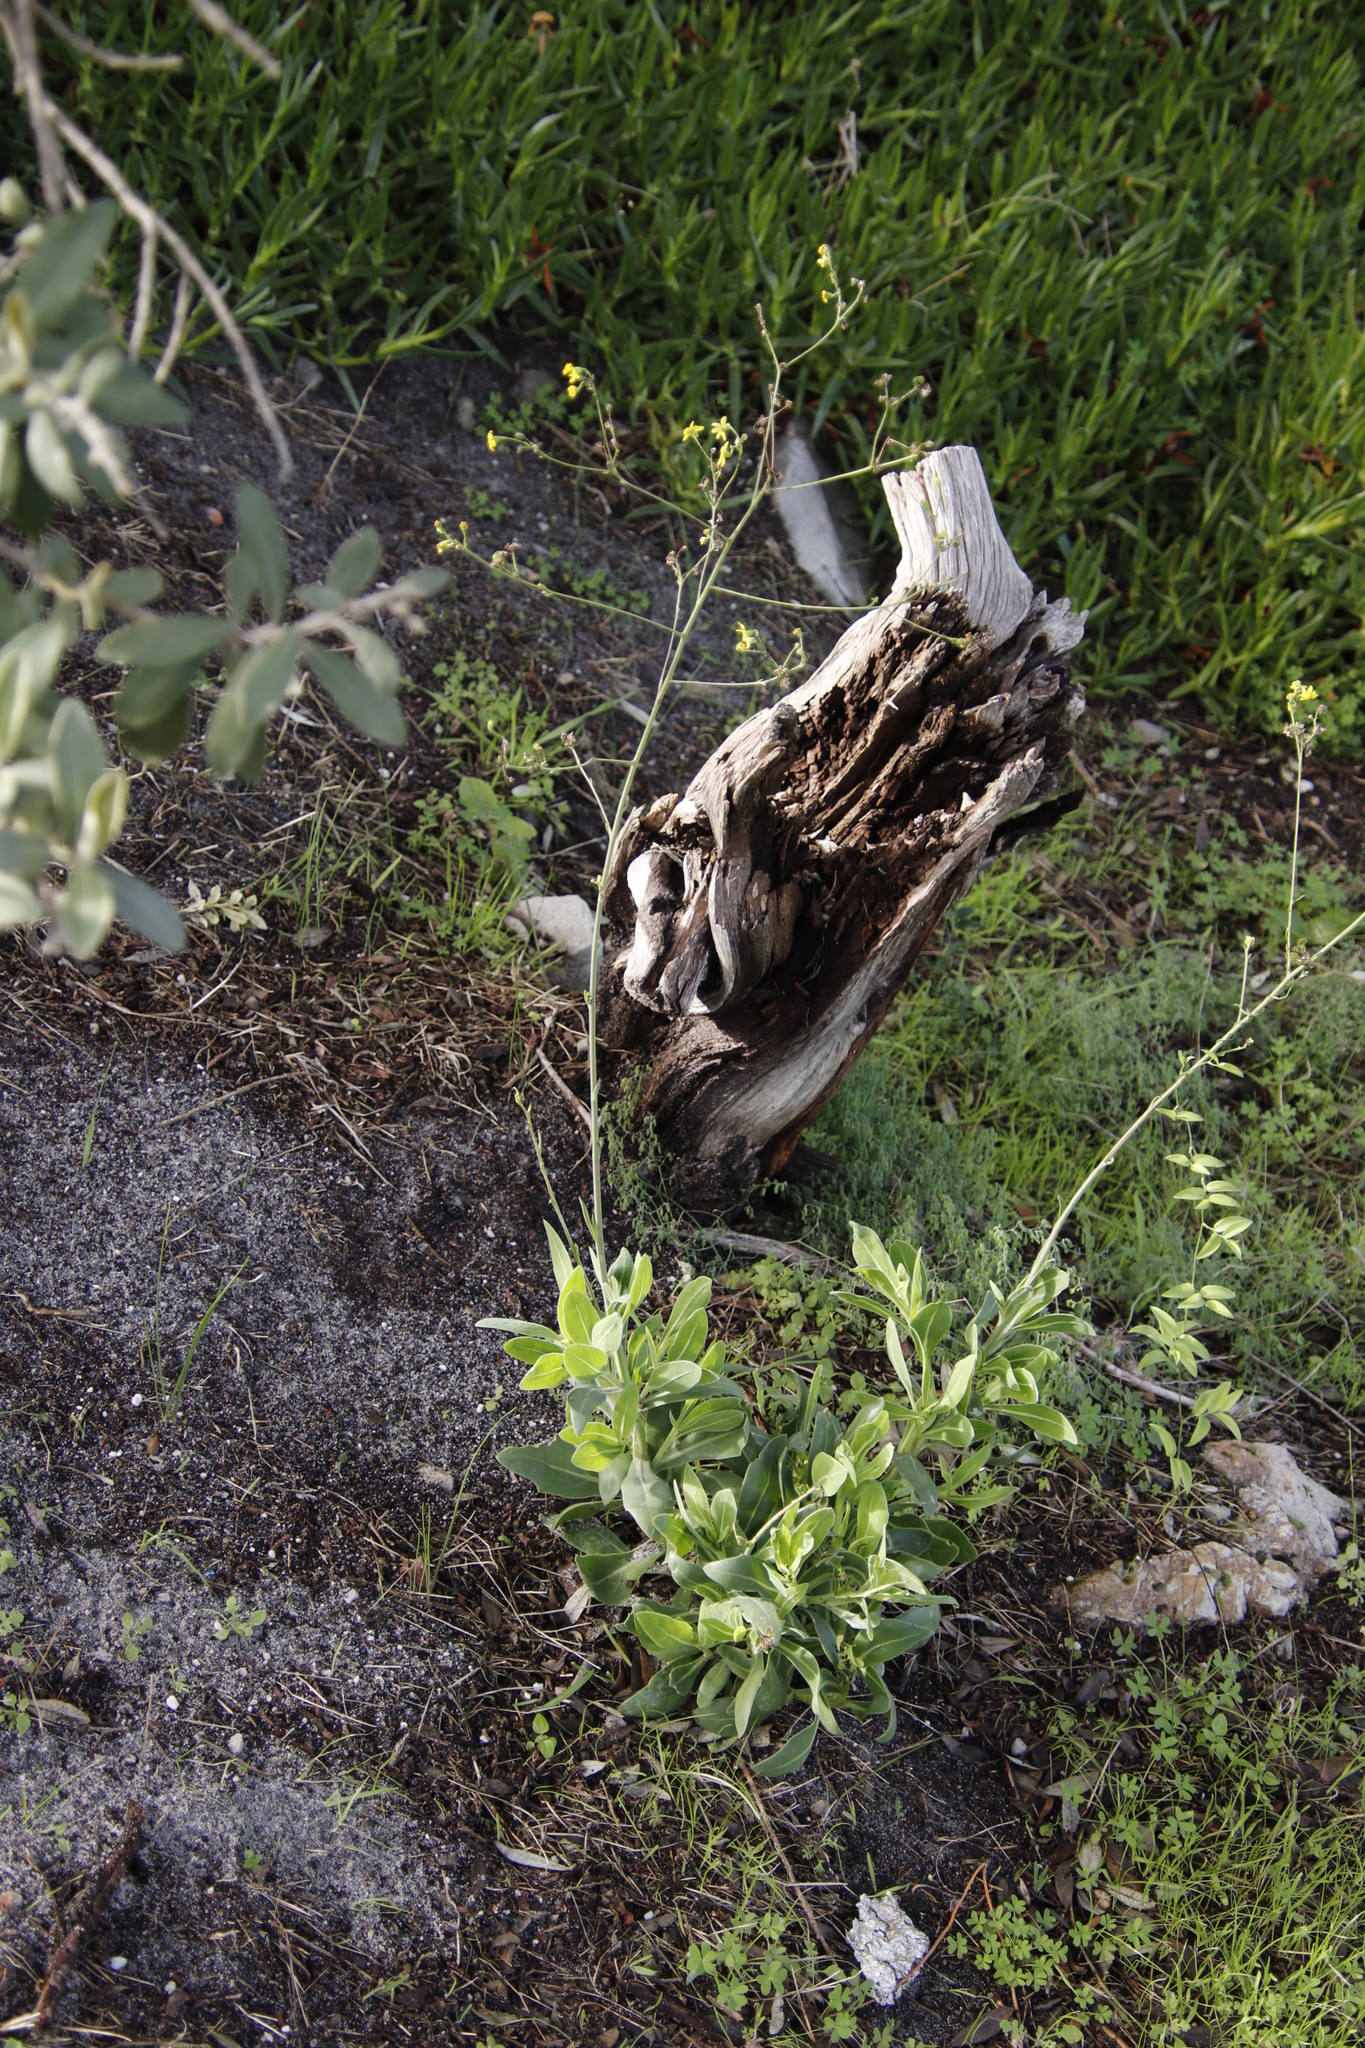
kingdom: Plantae
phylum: Tracheophyta
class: Magnoliopsida
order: Asterales
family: Asteraceae
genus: Othonna
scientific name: Othonna quinquedentata
